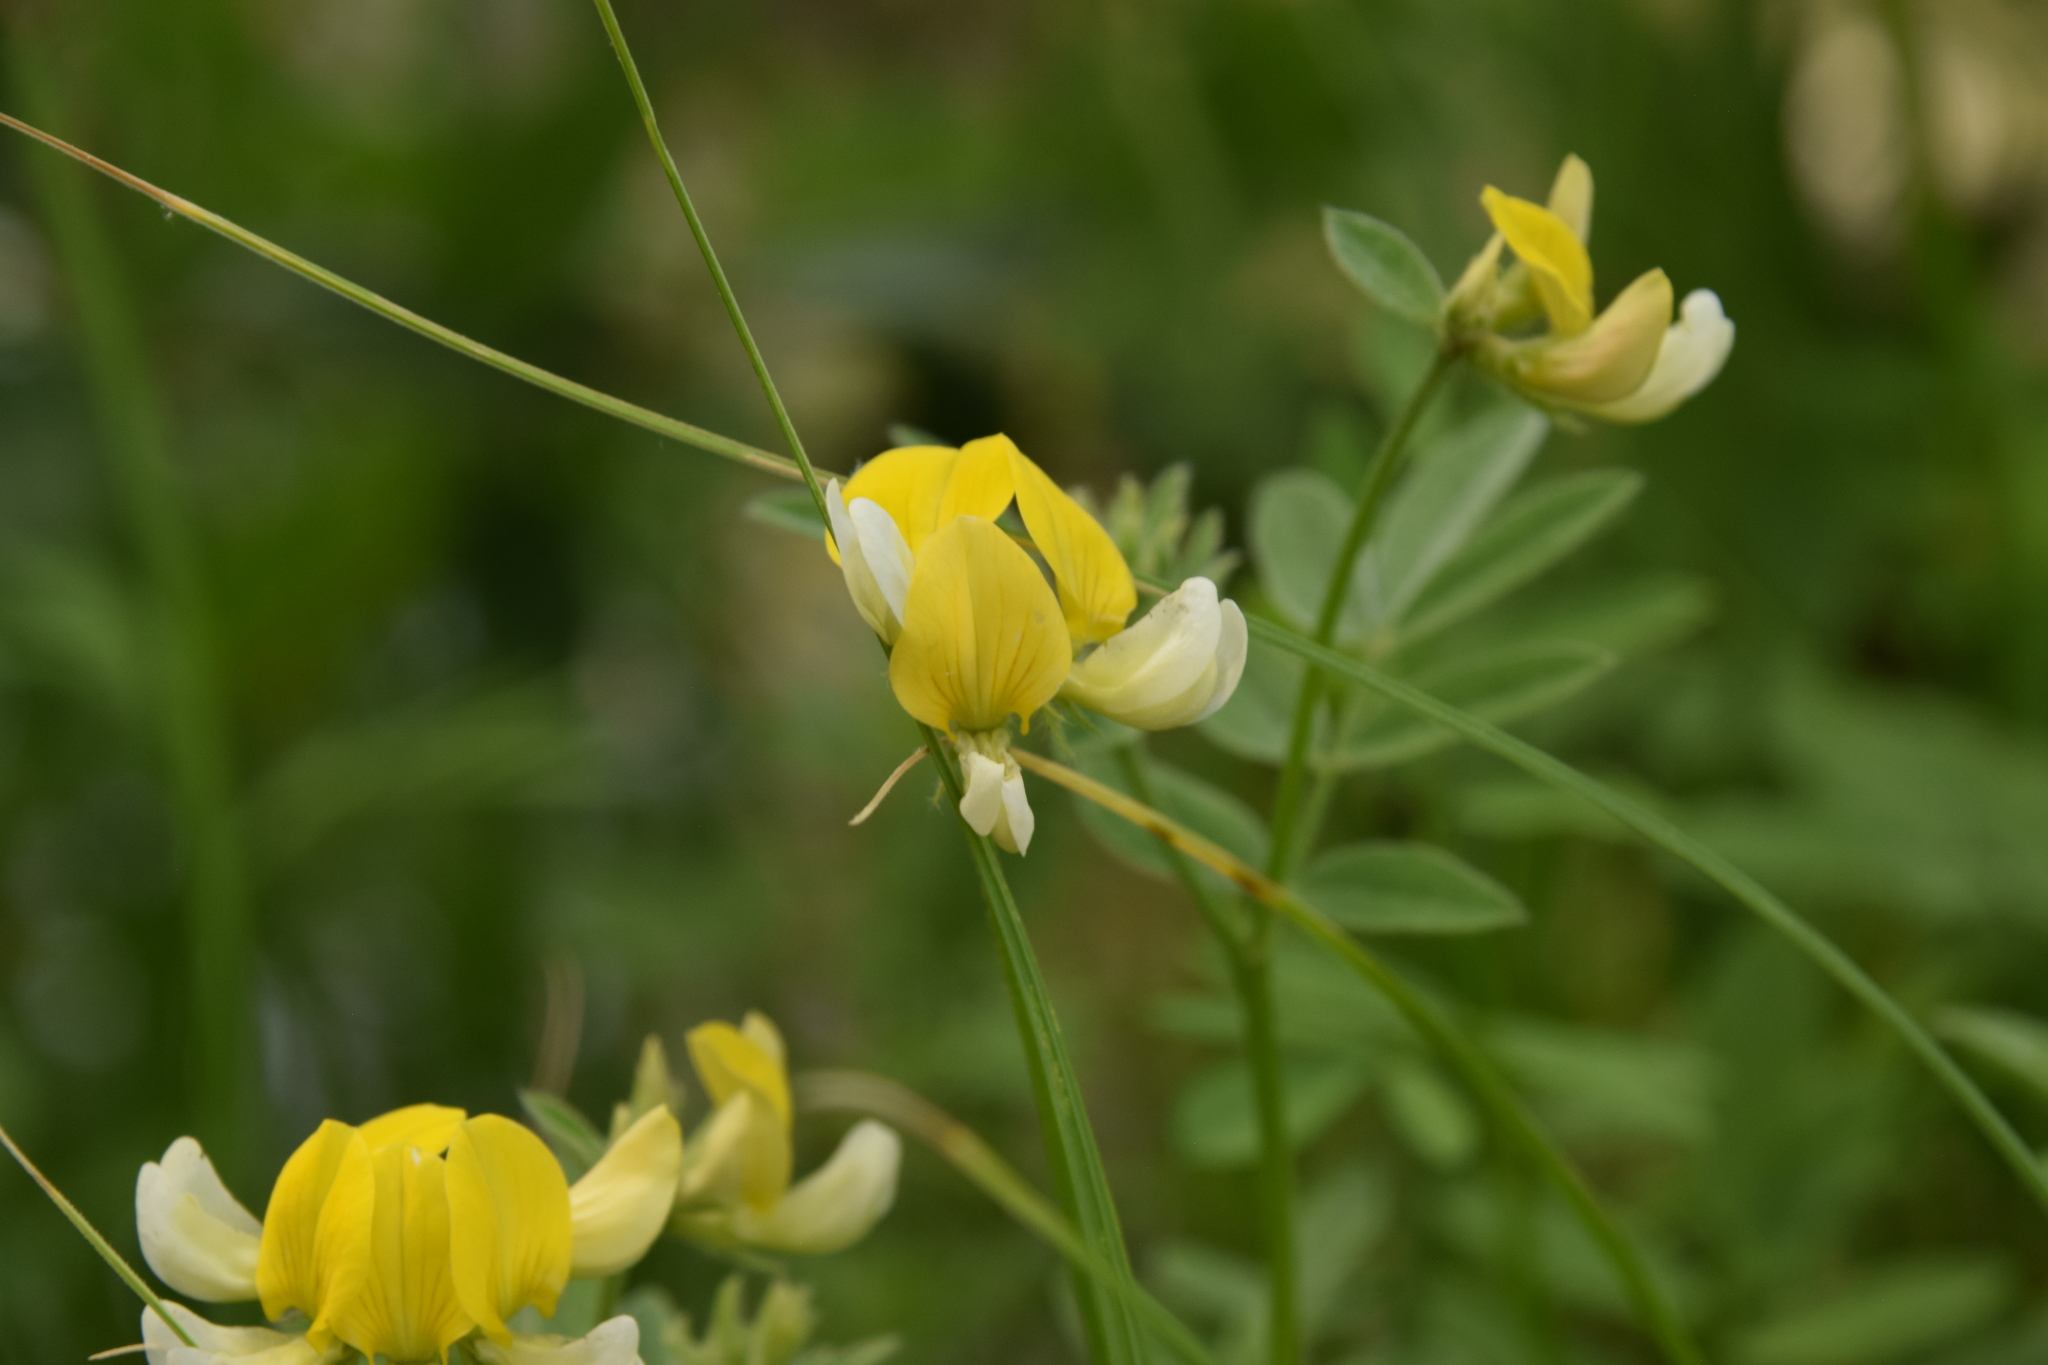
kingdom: Plantae
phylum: Tracheophyta
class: Magnoliopsida
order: Fabales
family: Fabaceae
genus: Hosackia
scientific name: Hosackia oblongifolia
